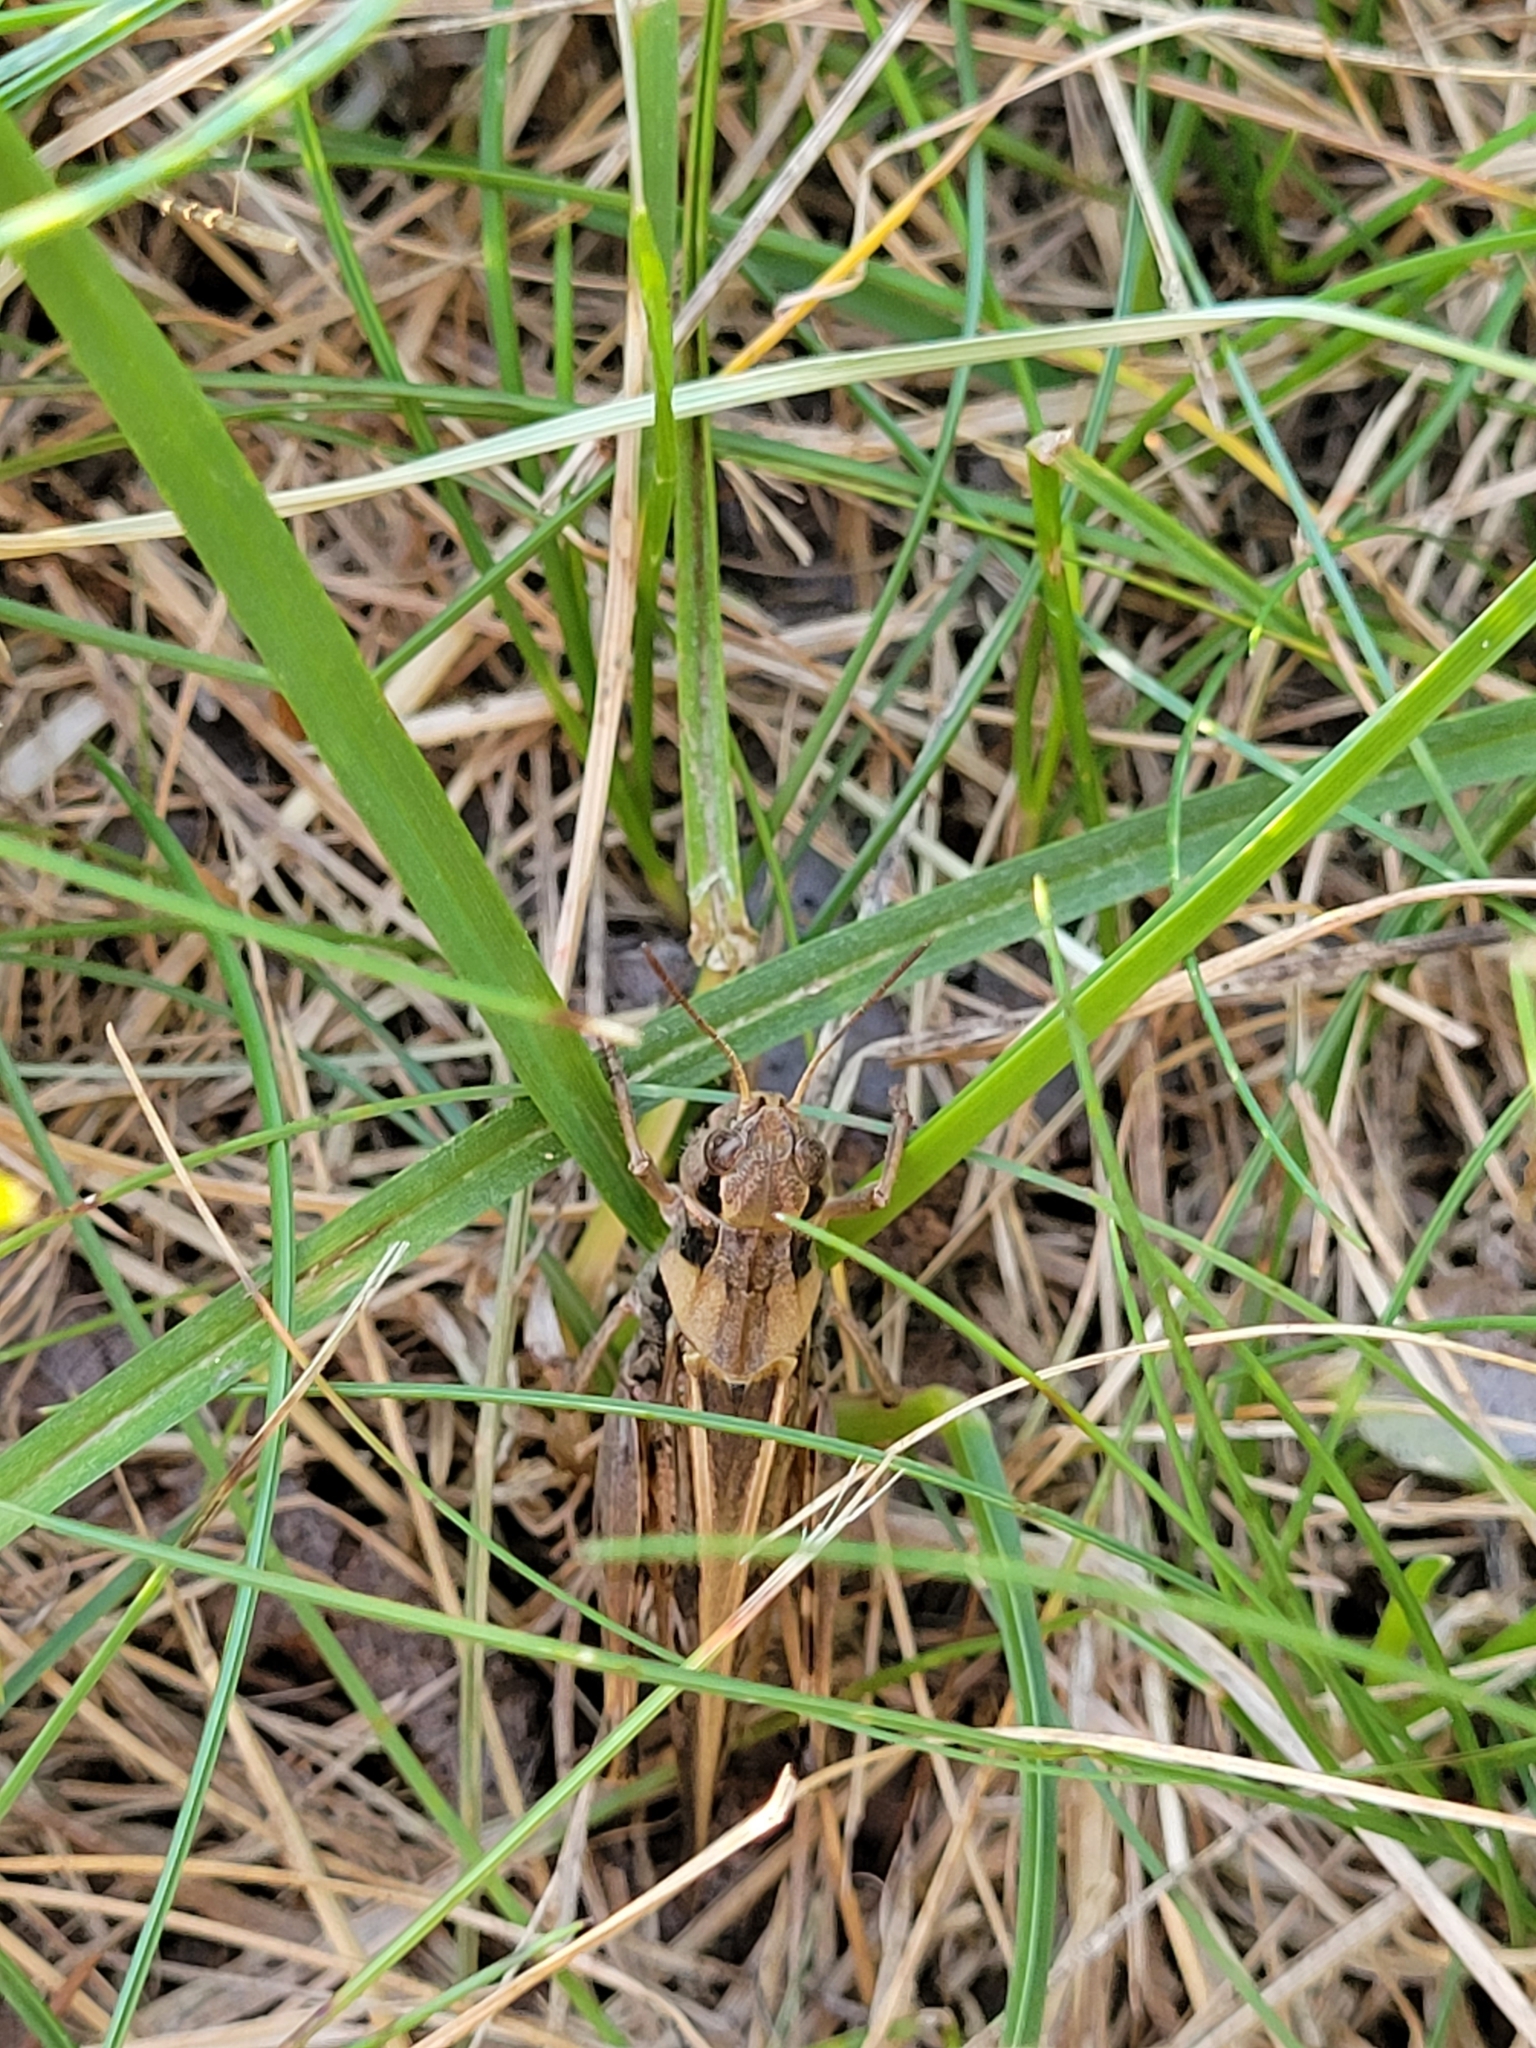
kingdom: Animalia
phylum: Arthropoda
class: Insecta
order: Orthoptera
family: Acrididae
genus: Camnula
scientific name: Camnula pellucida
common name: Clear-winged grasshopper
